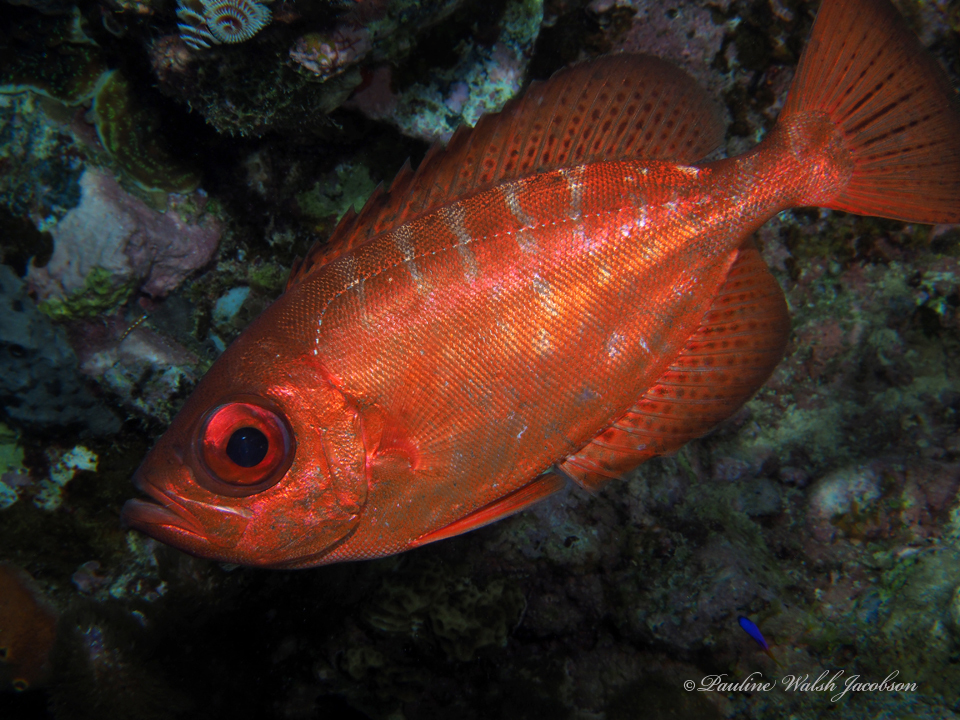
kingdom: Animalia
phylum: Chordata
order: Perciformes
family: Priacanthidae
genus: Heteropriacanthus
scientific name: Heteropriacanthus cruentatus
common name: Glasseye
